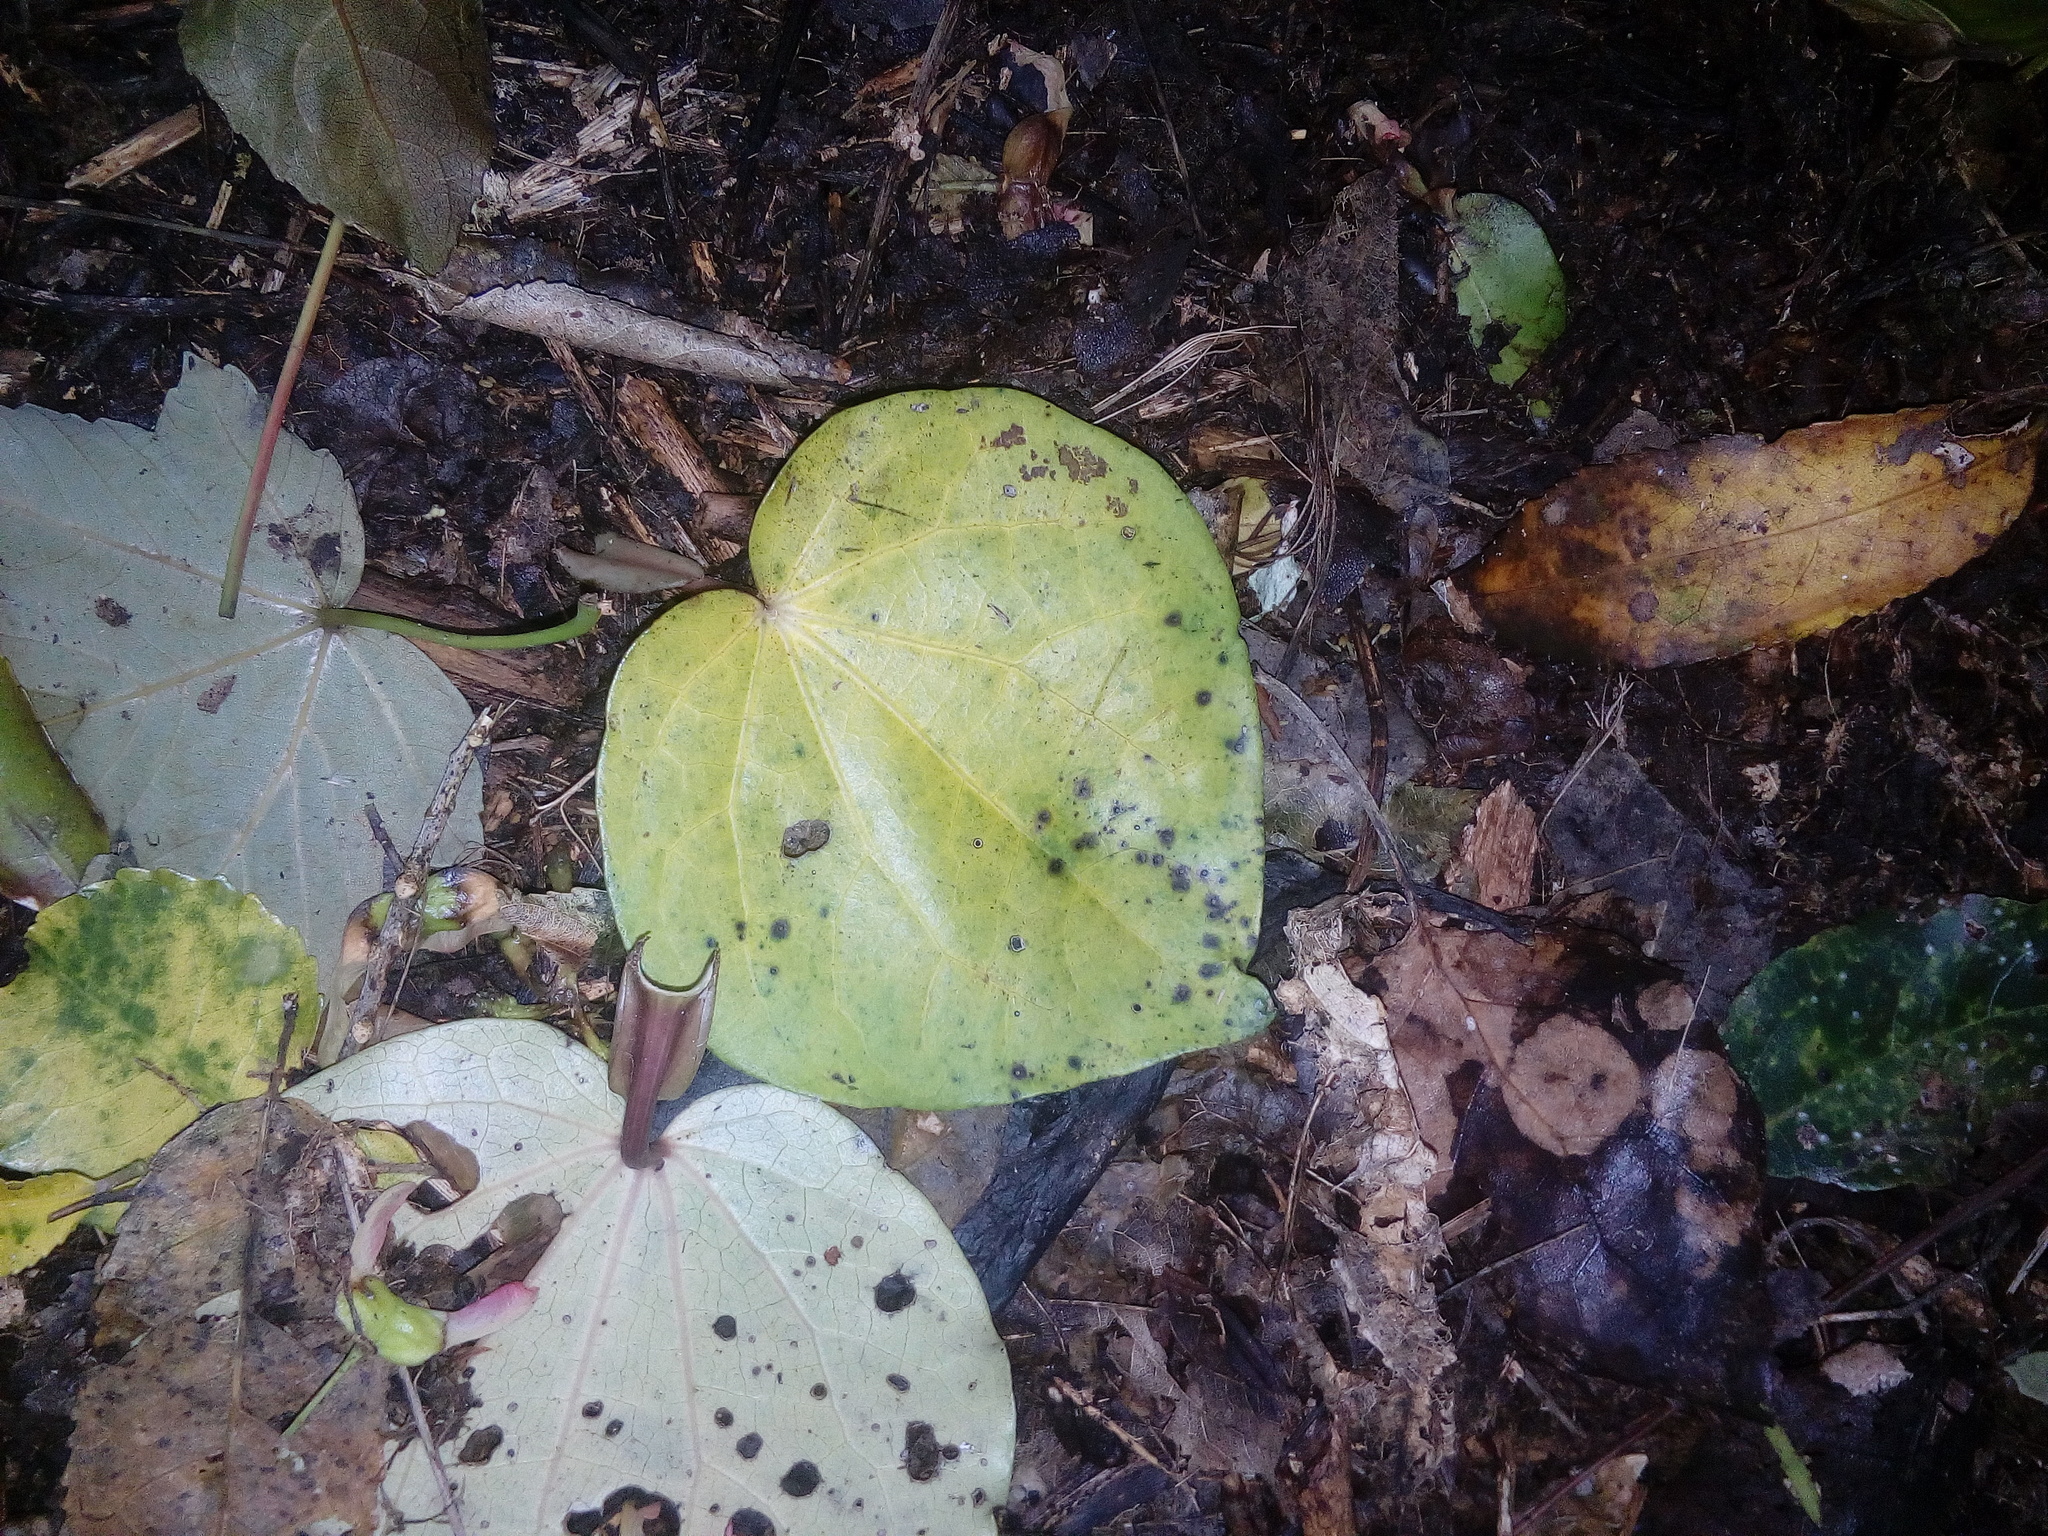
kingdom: Plantae
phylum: Tracheophyta
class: Magnoliopsida
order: Piperales
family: Piperaceae
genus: Macropiper
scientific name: Macropiper excelsum
